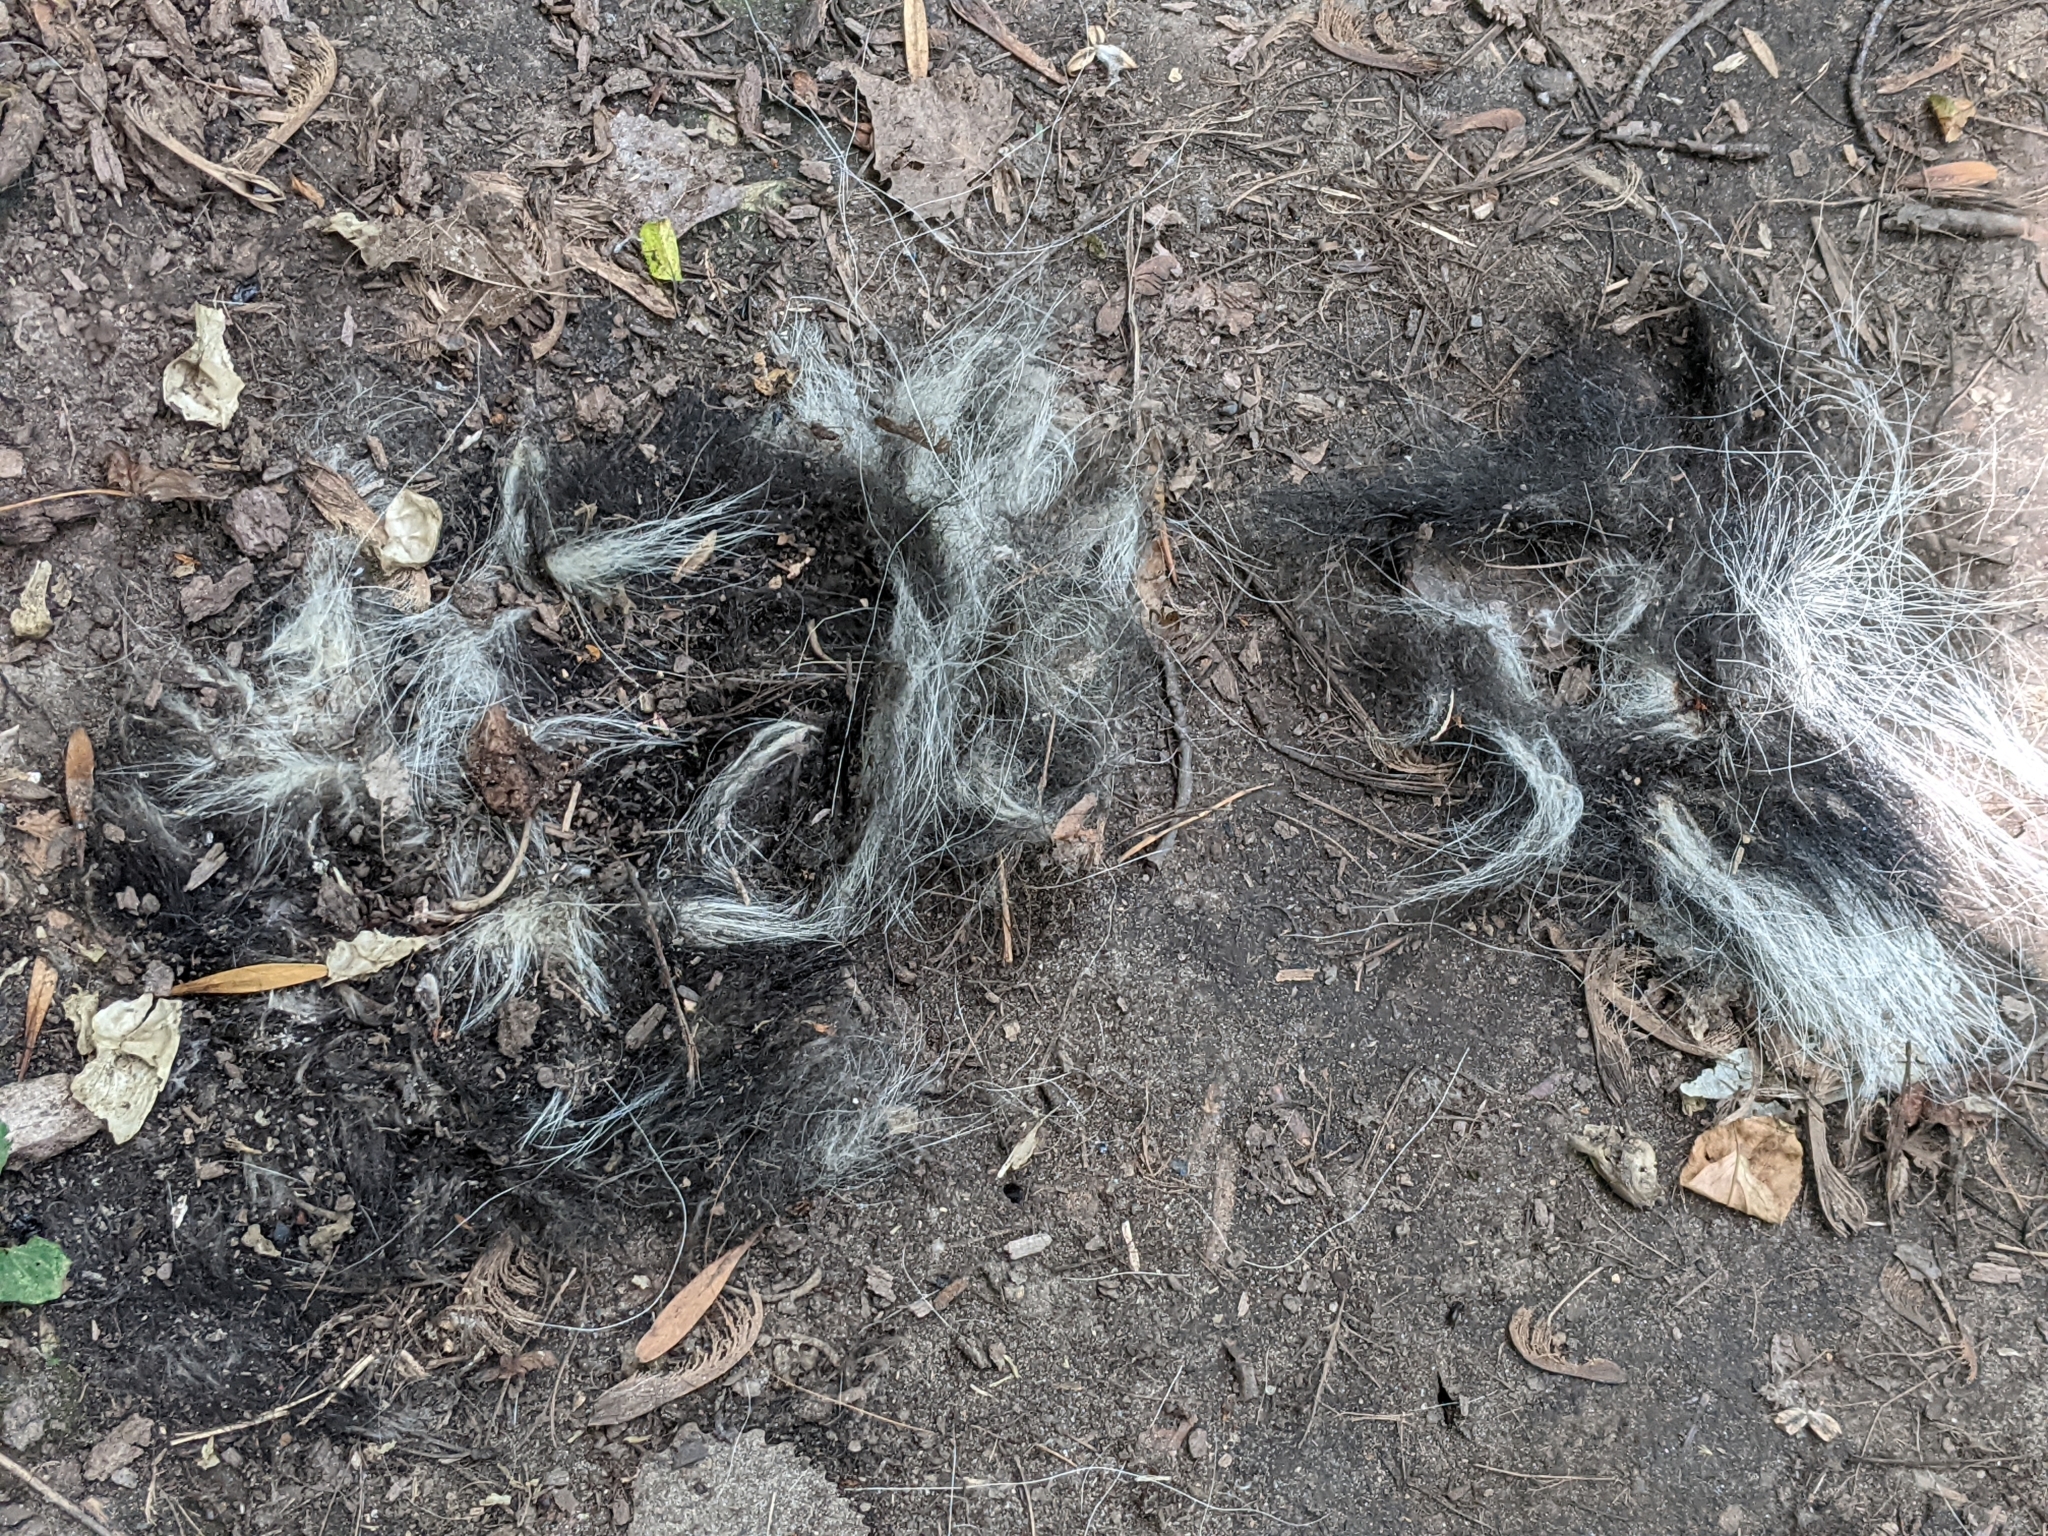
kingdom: Animalia
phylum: Chordata
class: Mammalia
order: Carnivora
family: Mephitidae
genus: Mephitis
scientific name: Mephitis mephitis
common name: Striped skunk
